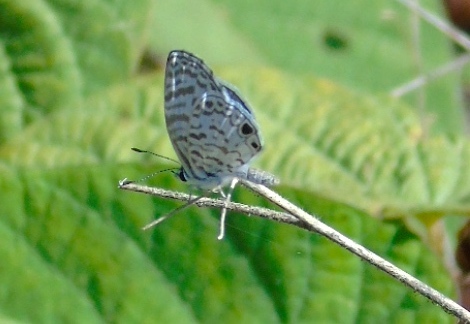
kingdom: Animalia
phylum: Arthropoda
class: Insecta
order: Lepidoptera
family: Lycaenidae
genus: Leptotes
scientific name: Leptotes cassius
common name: Cassius blue
